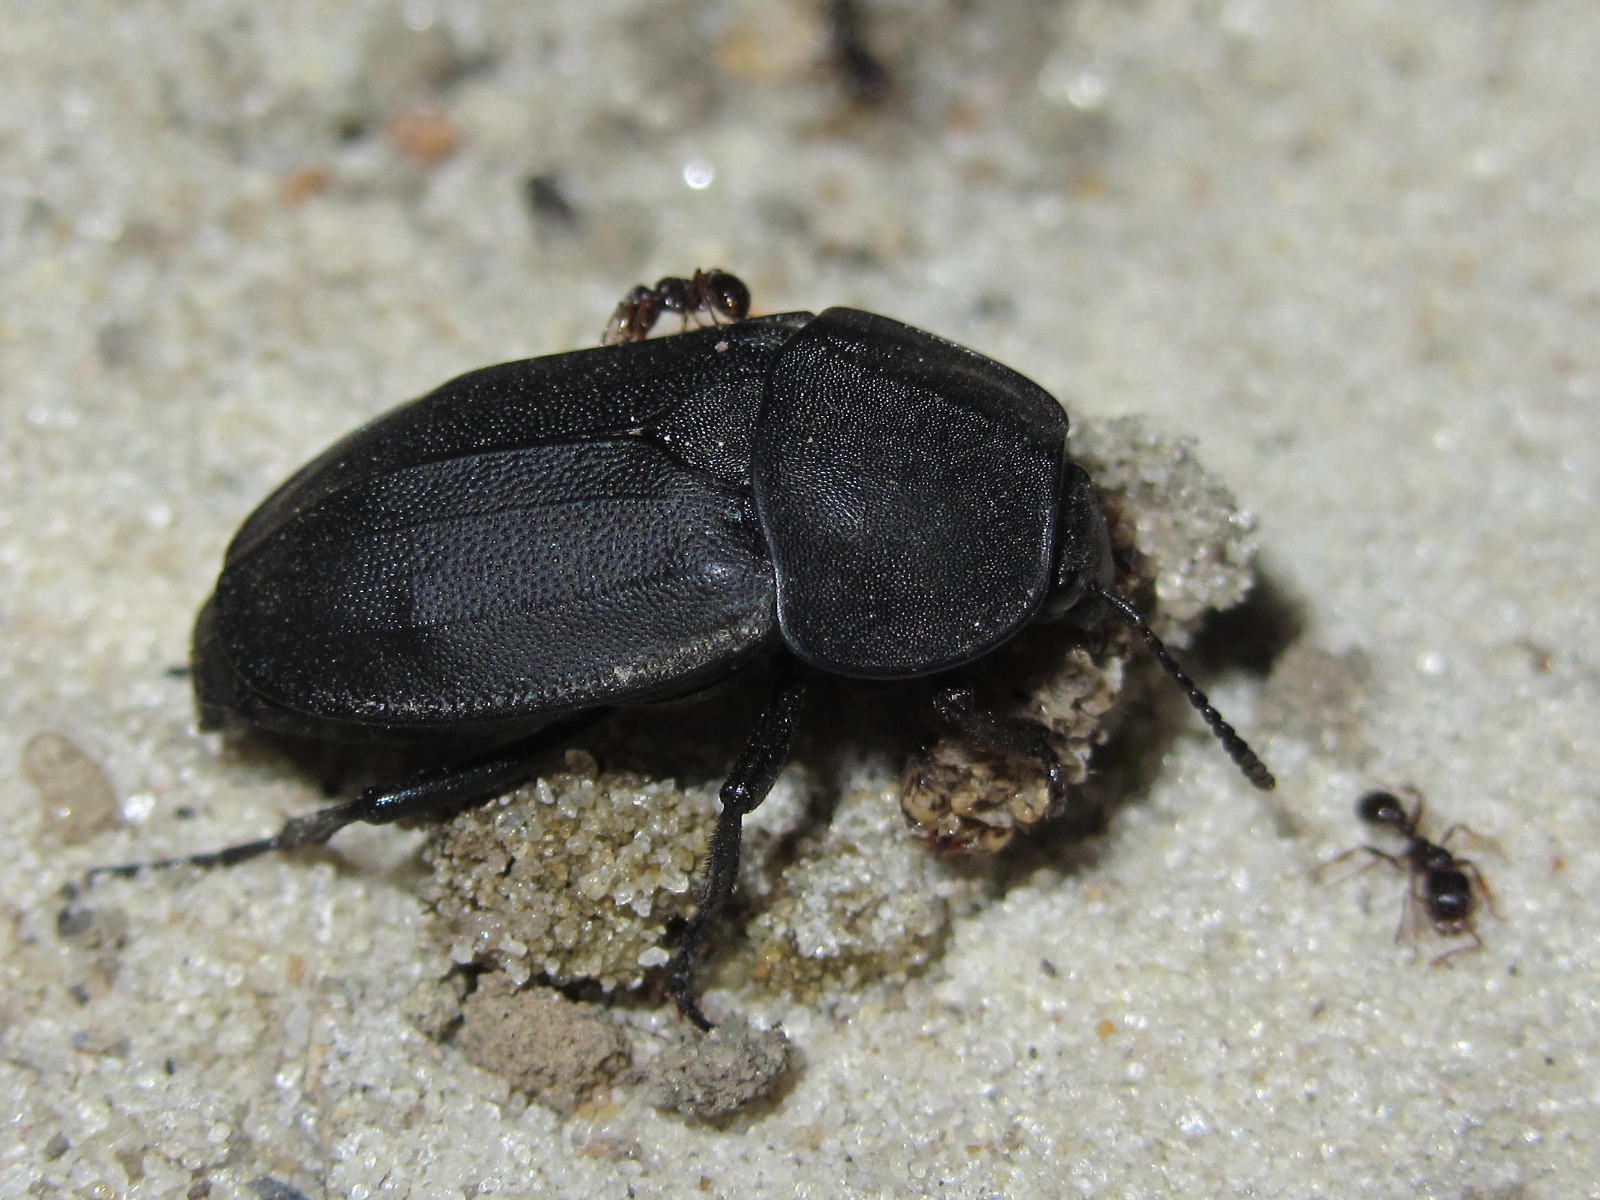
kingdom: Animalia
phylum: Arthropoda
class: Insecta
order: Coleoptera
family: Staphylinidae
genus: Silpha
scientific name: Silpha obscura
